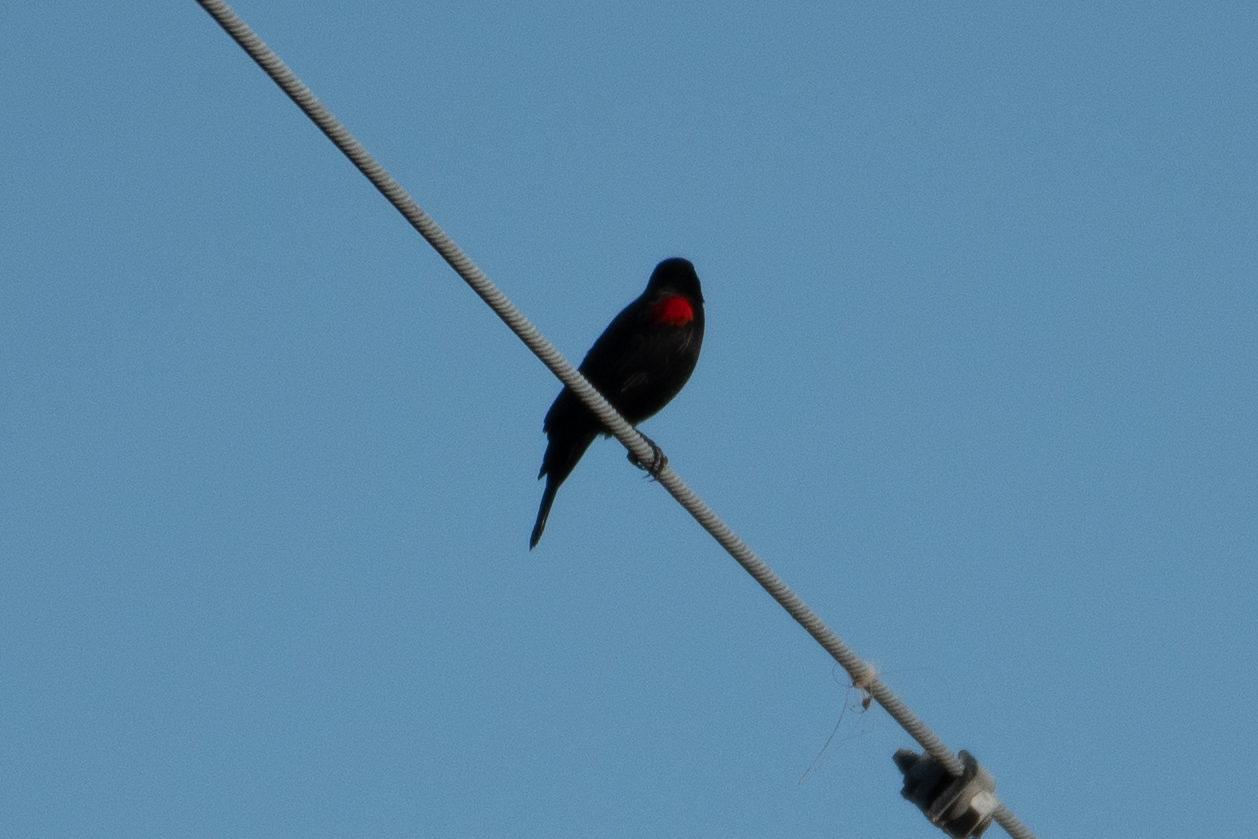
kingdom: Animalia
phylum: Chordata
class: Aves
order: Passeriformes
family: Icteridae
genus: Agelaius
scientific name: Agelaius phoeniceus
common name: Red-winged blackbird
